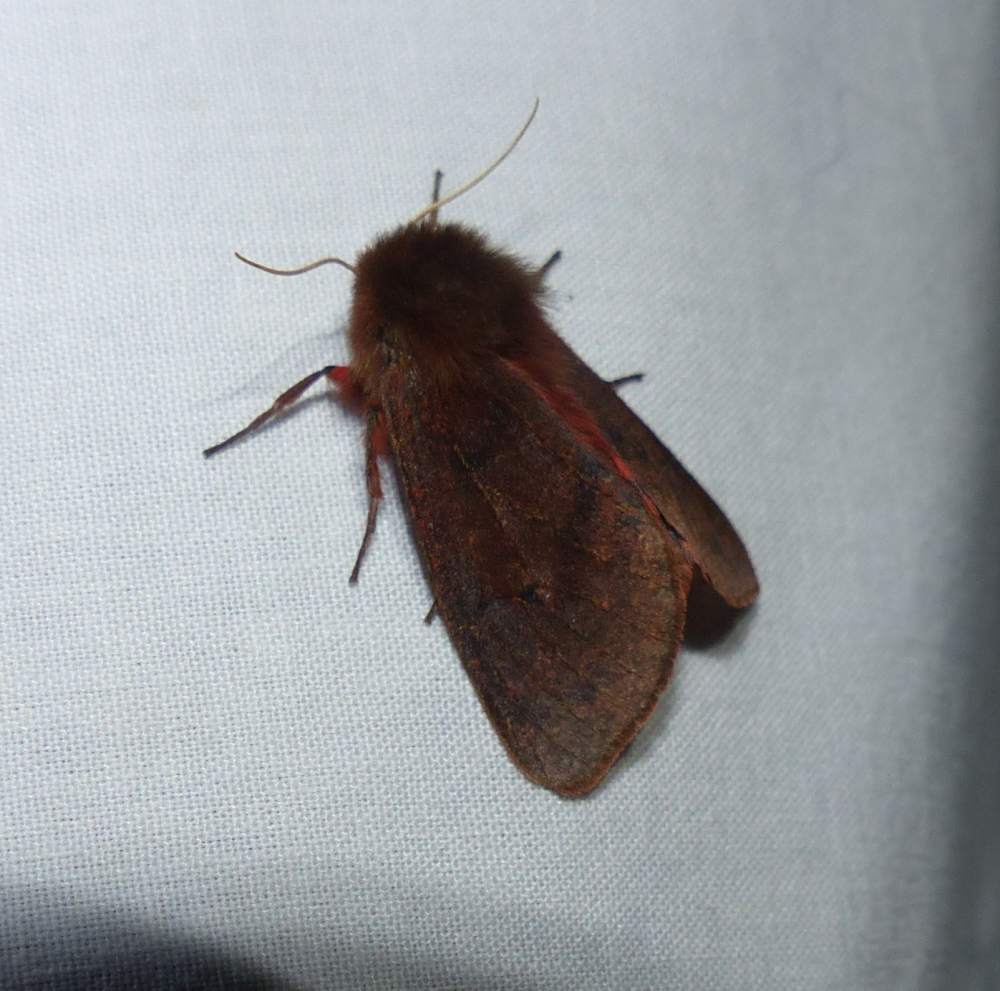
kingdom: Animalia
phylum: Arthropoda
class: Insecta
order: Lepidoptera
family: Erebidae
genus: Phragmatobia
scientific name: Phragmatobia assimilans
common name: Large ruby tiger moth
